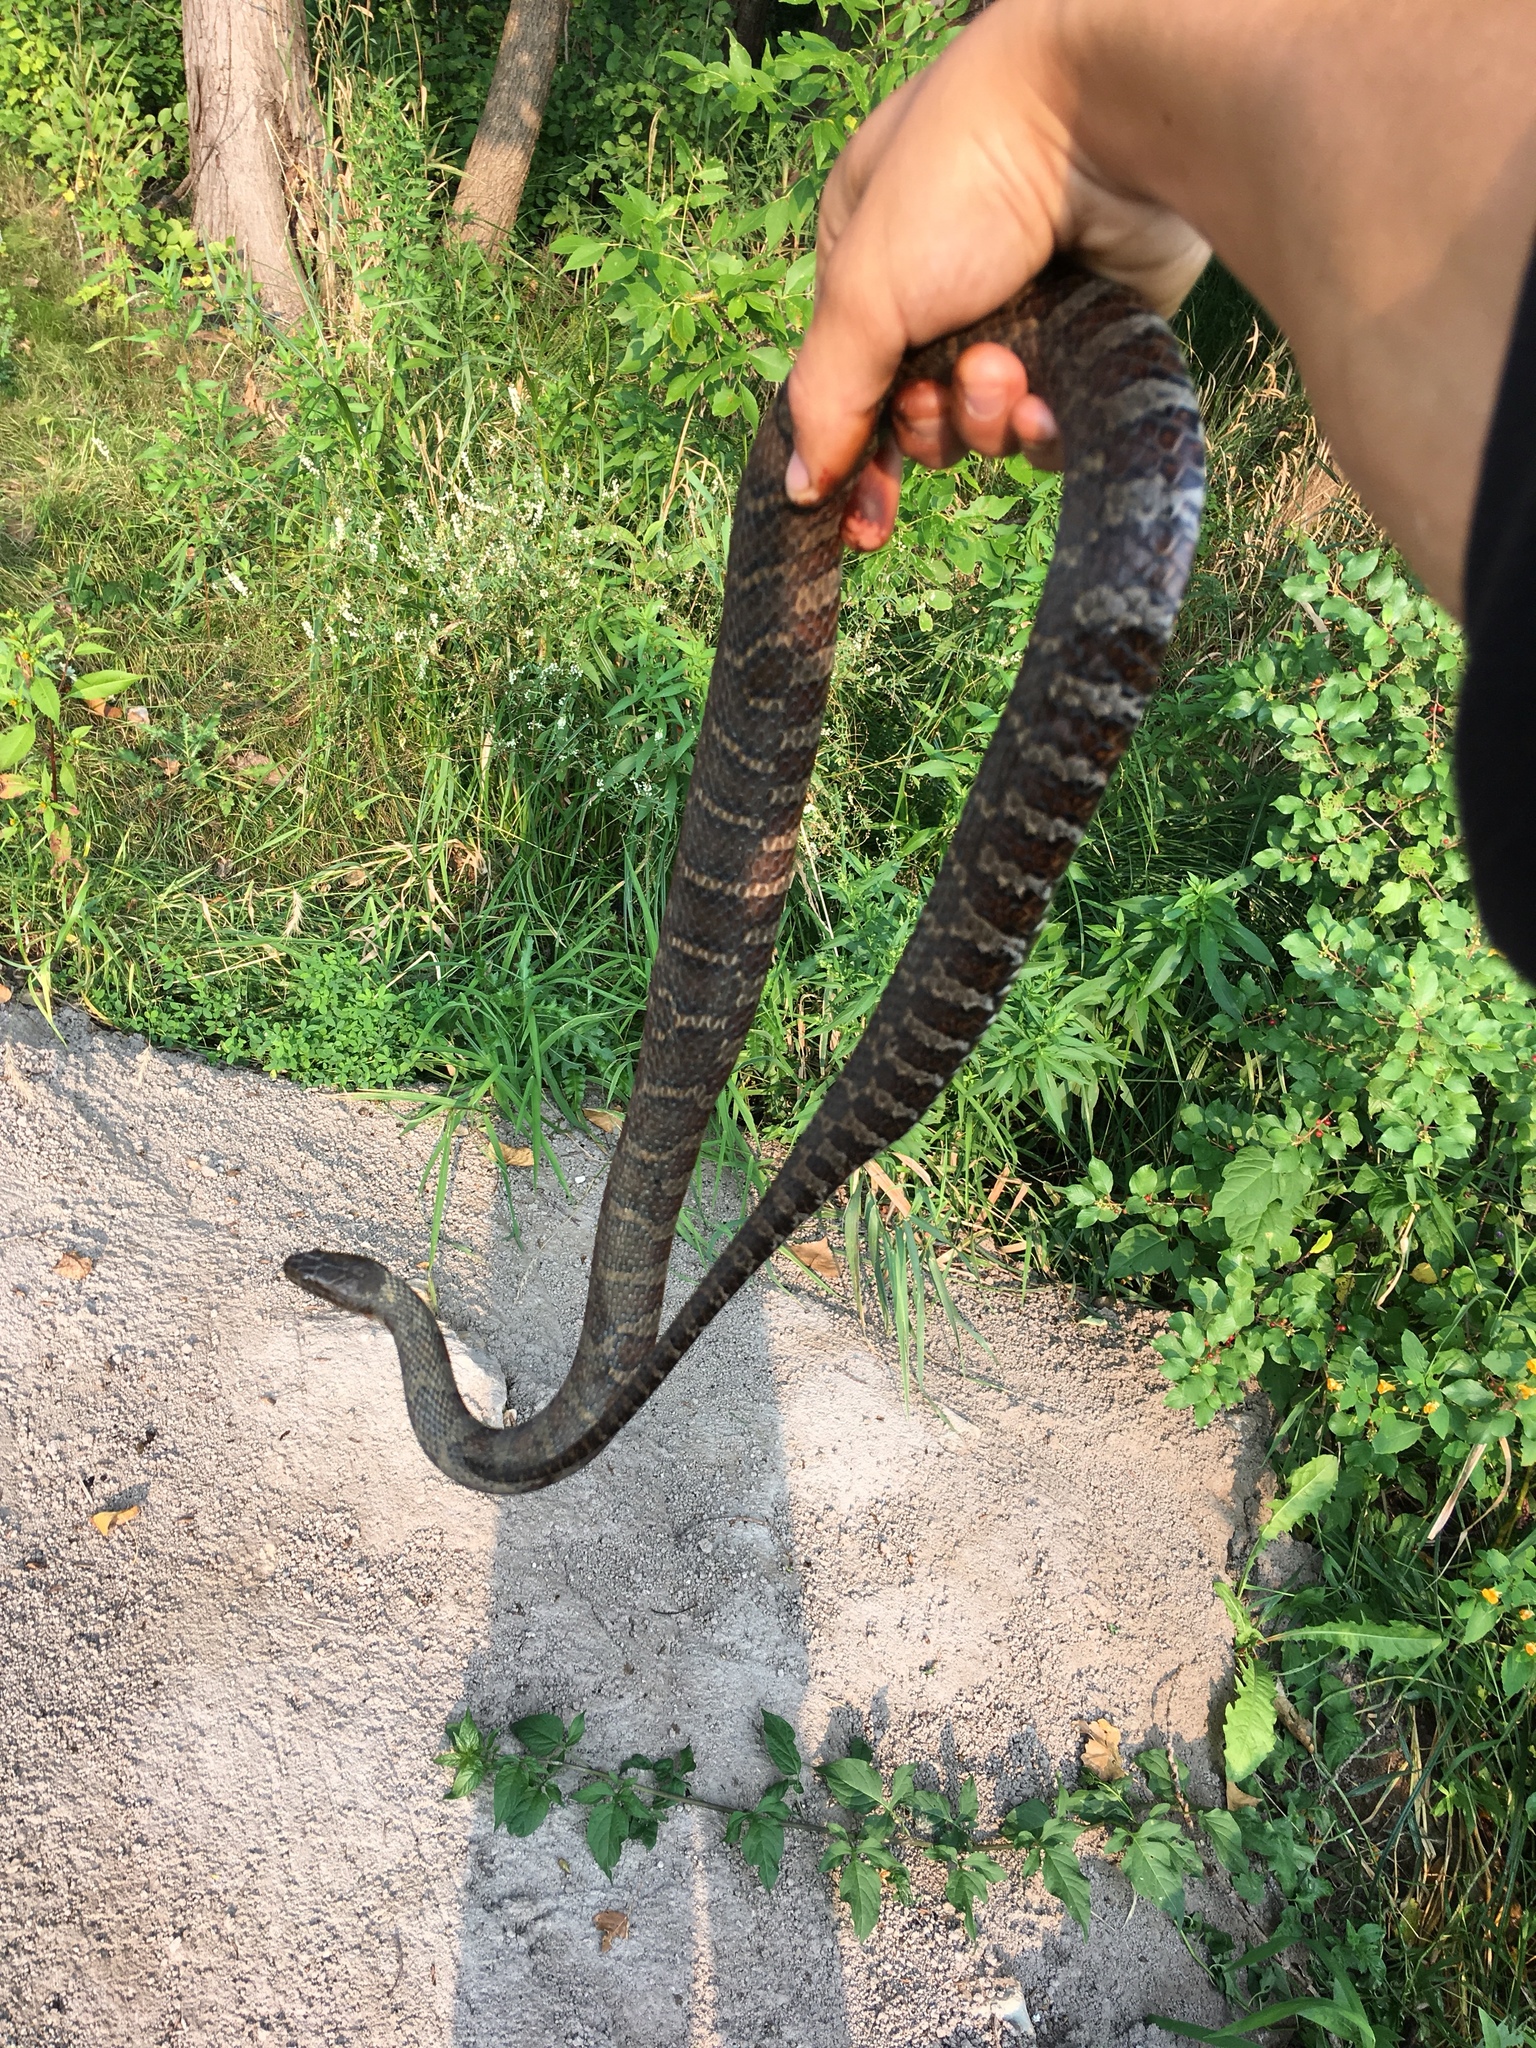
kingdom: Animalia
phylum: Chordata
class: Squamata
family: Colubridae
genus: Nerodia
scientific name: Nerodia sipedon
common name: Northern water snake
